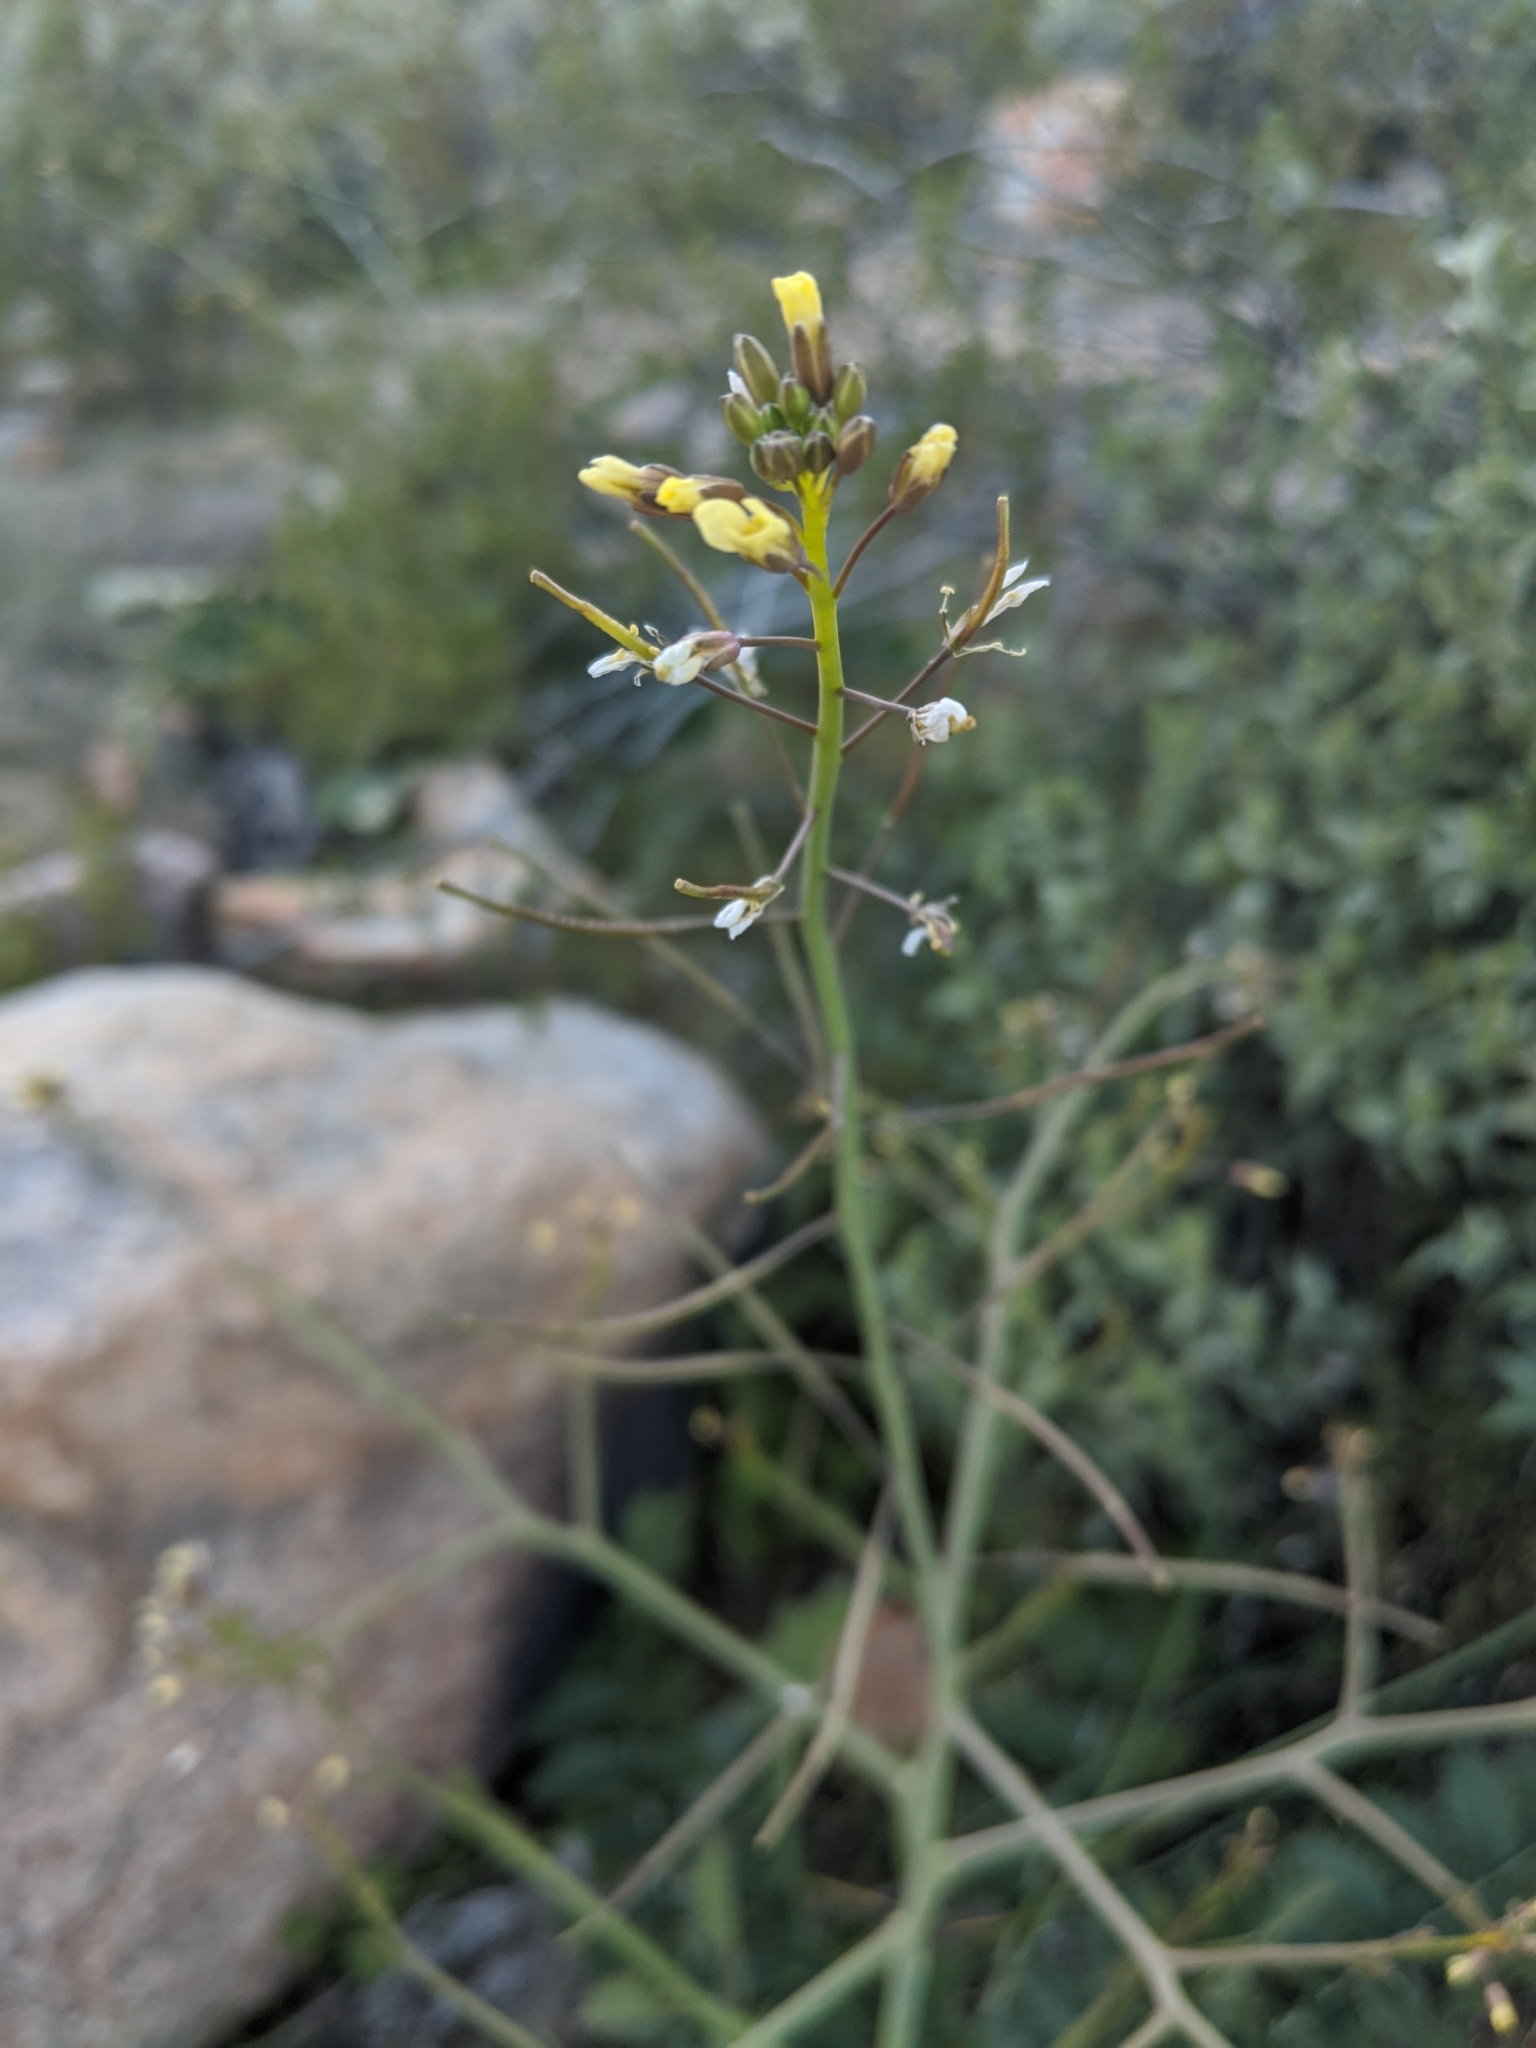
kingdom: Plantae
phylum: Tracheophyta
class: Magnoliopsida
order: Brassicales
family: Brassicaceae
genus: Brassica
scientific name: Brassica tournefortii
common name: Pale cabbage
